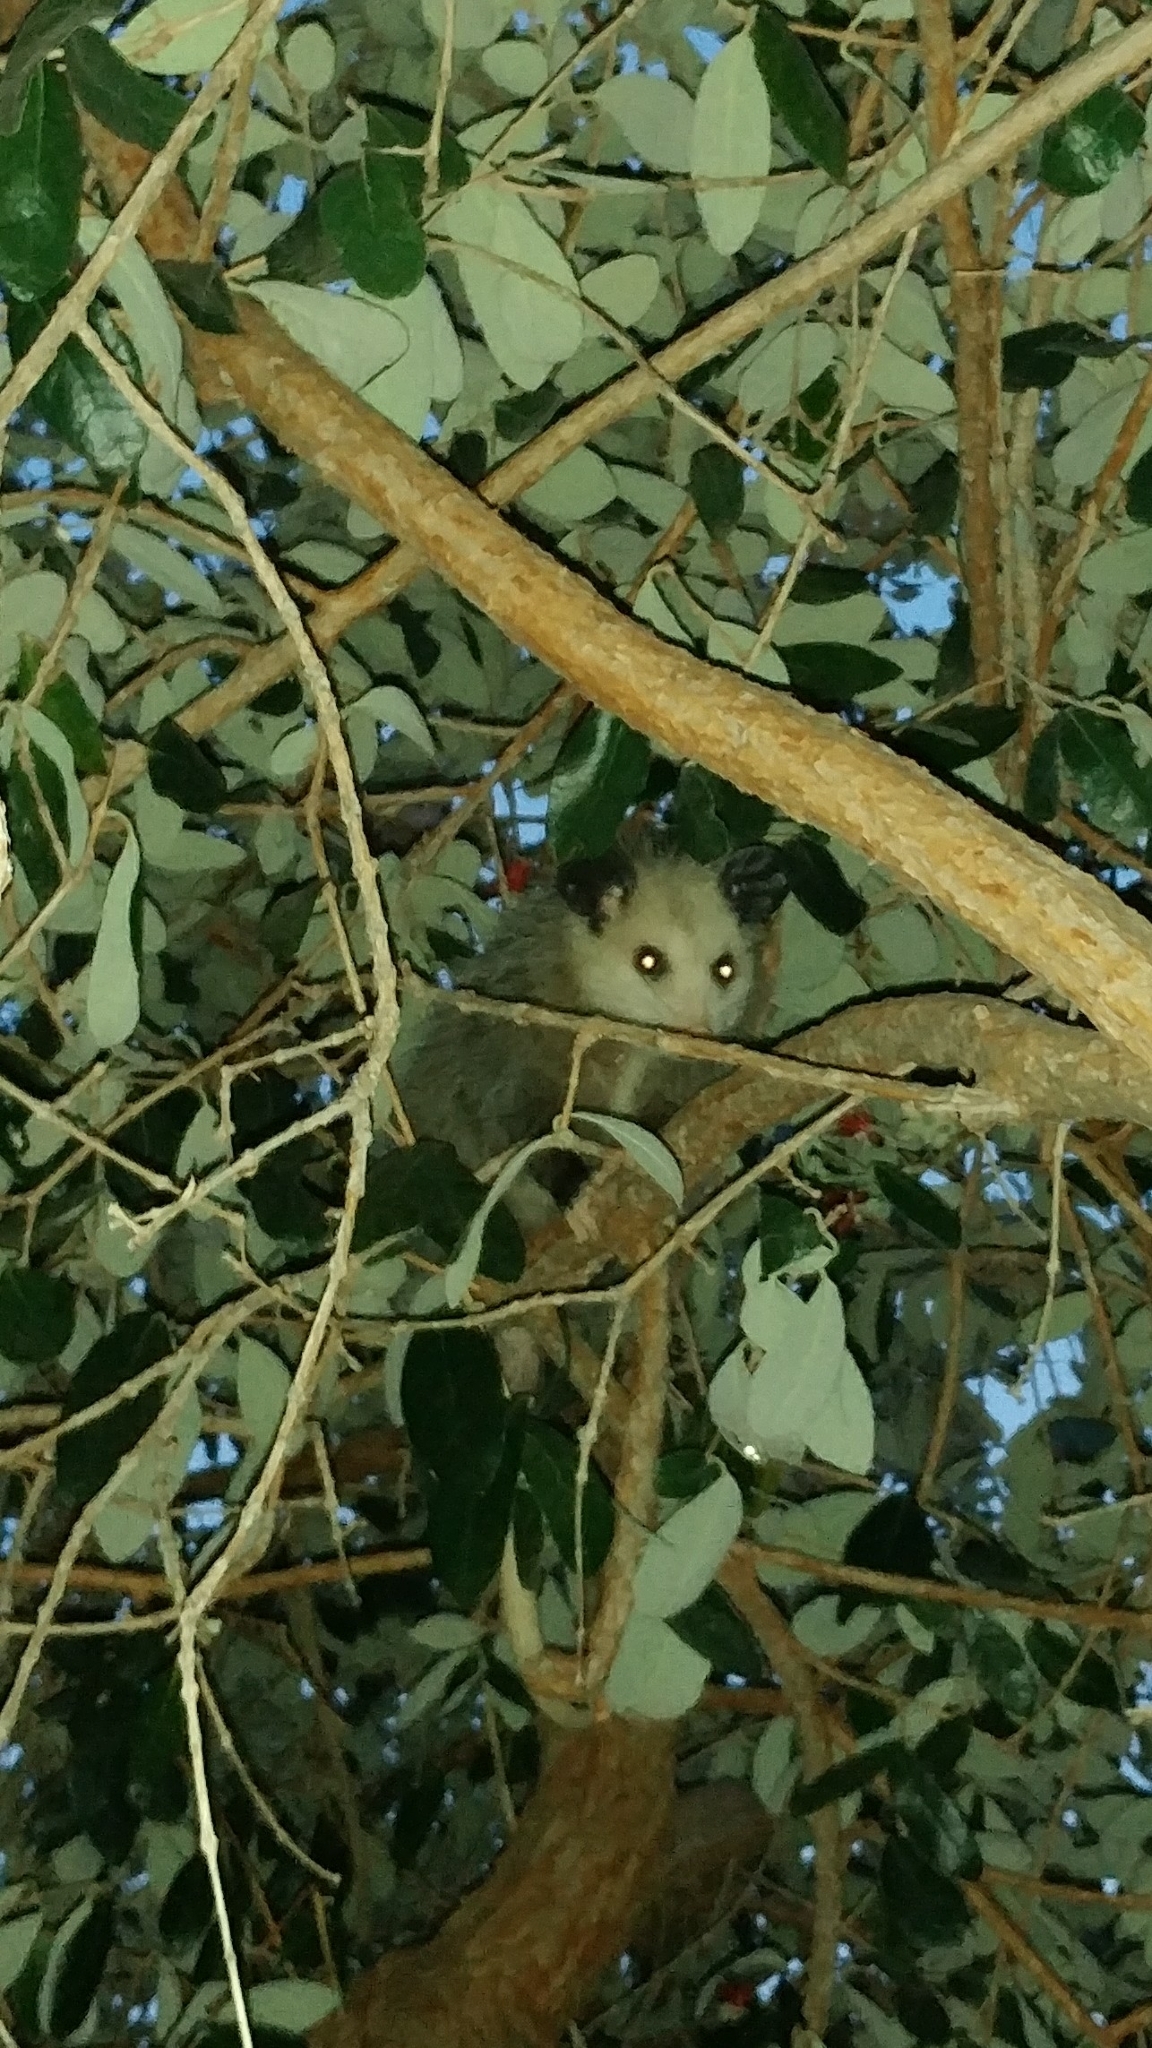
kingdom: Animalia
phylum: Chordata
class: Mammalia
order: Didelphimorphia
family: Didelphidae
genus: Didelphis
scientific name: Didelphis virginiana
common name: Virginia opossum
